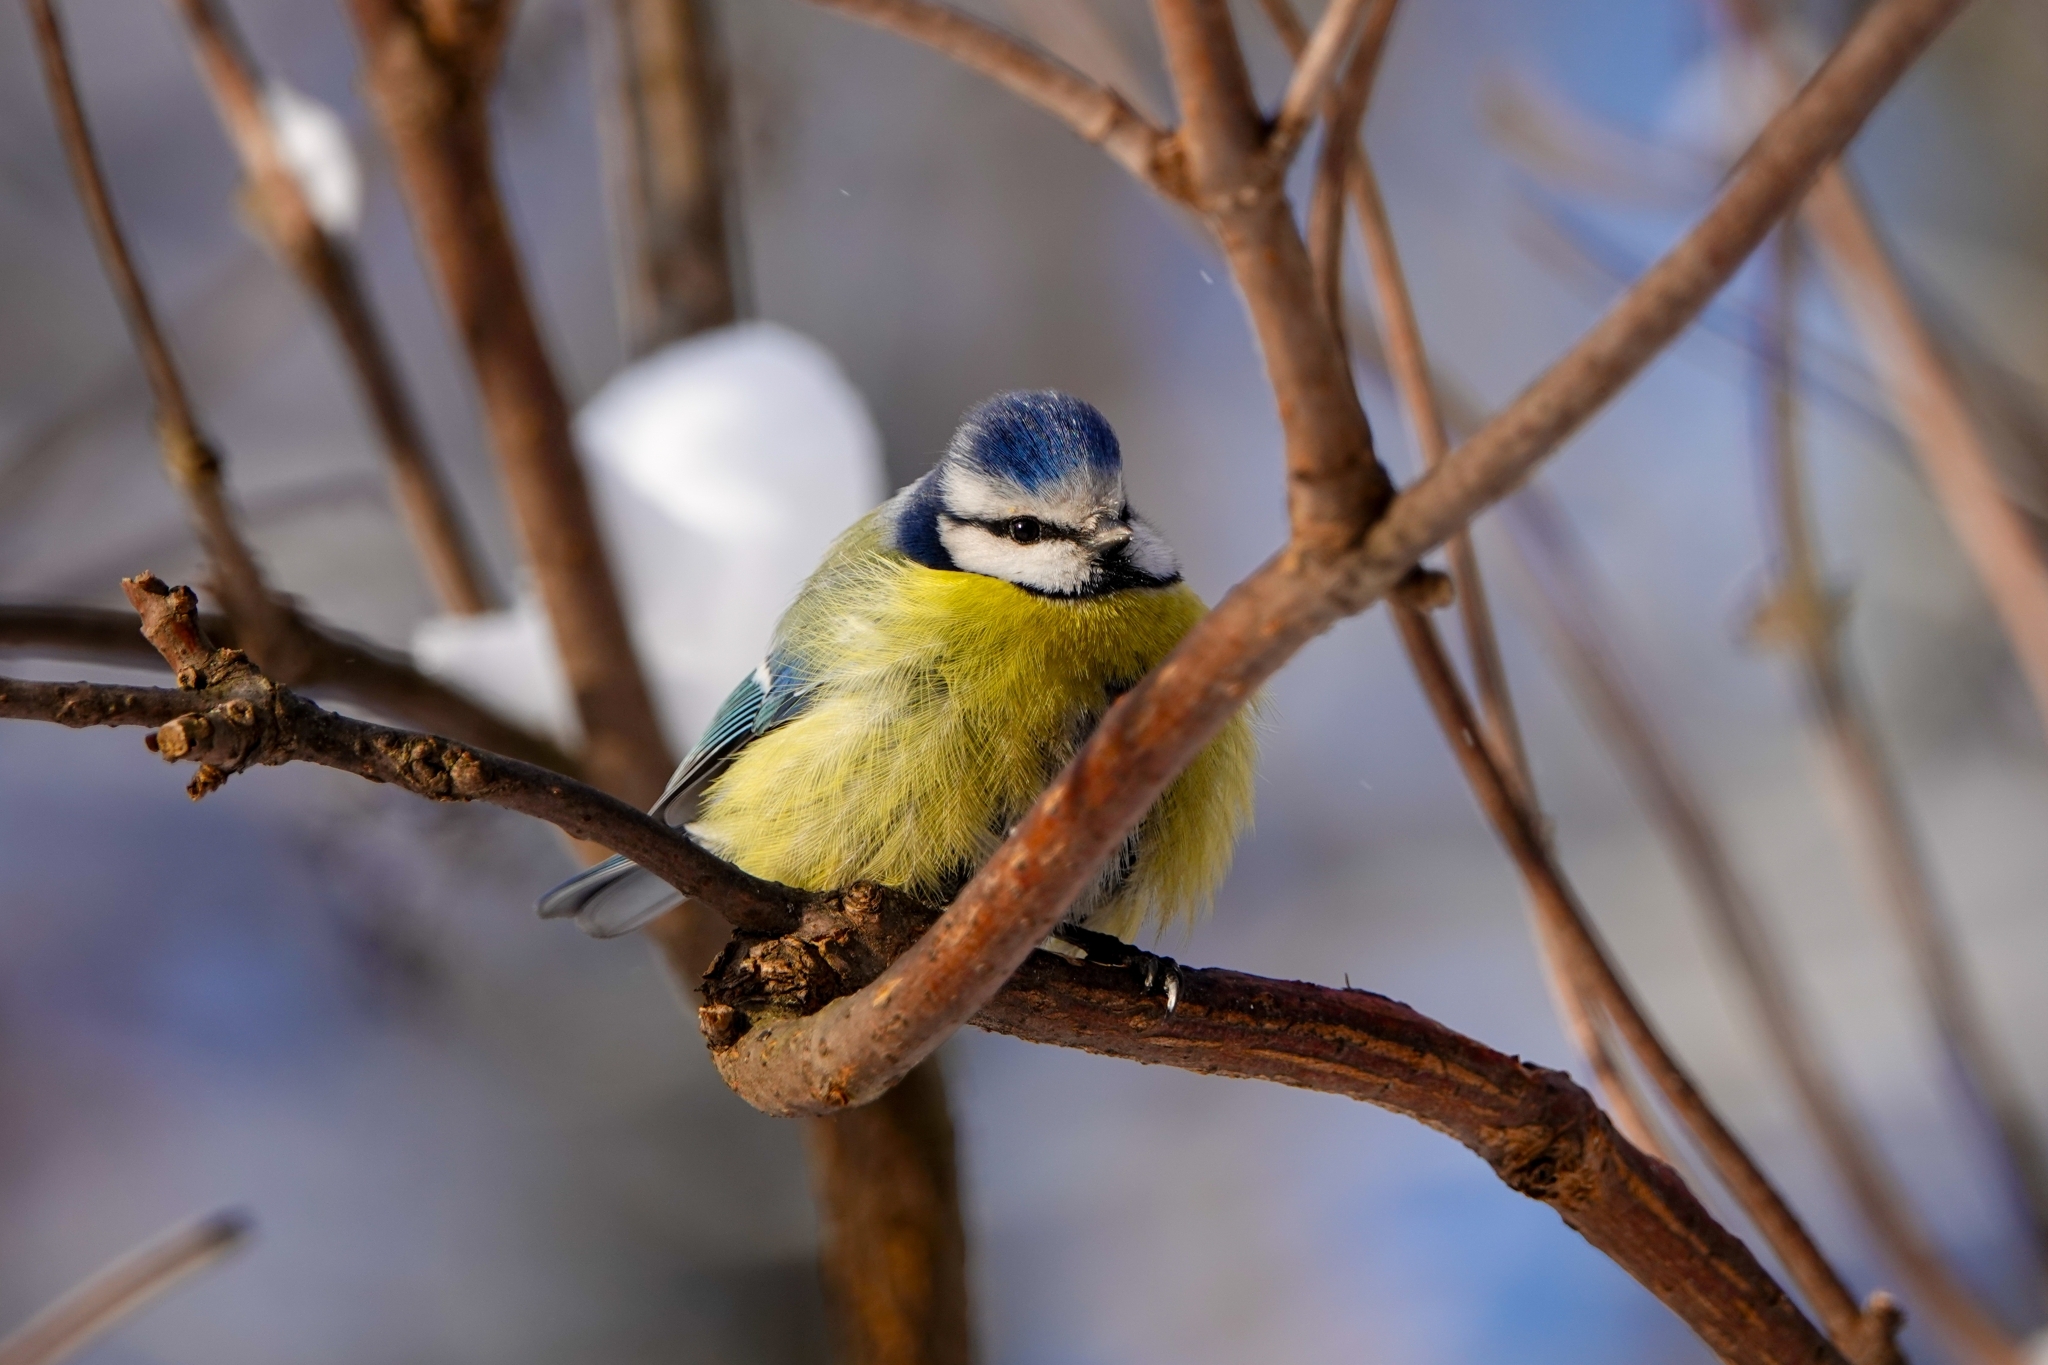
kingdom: Animalia
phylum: Chordata
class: Aves
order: Passeriformes
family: Paridae
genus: Cyanistes
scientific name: Cyanistes caeruleus
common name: Eurasian blue tit
